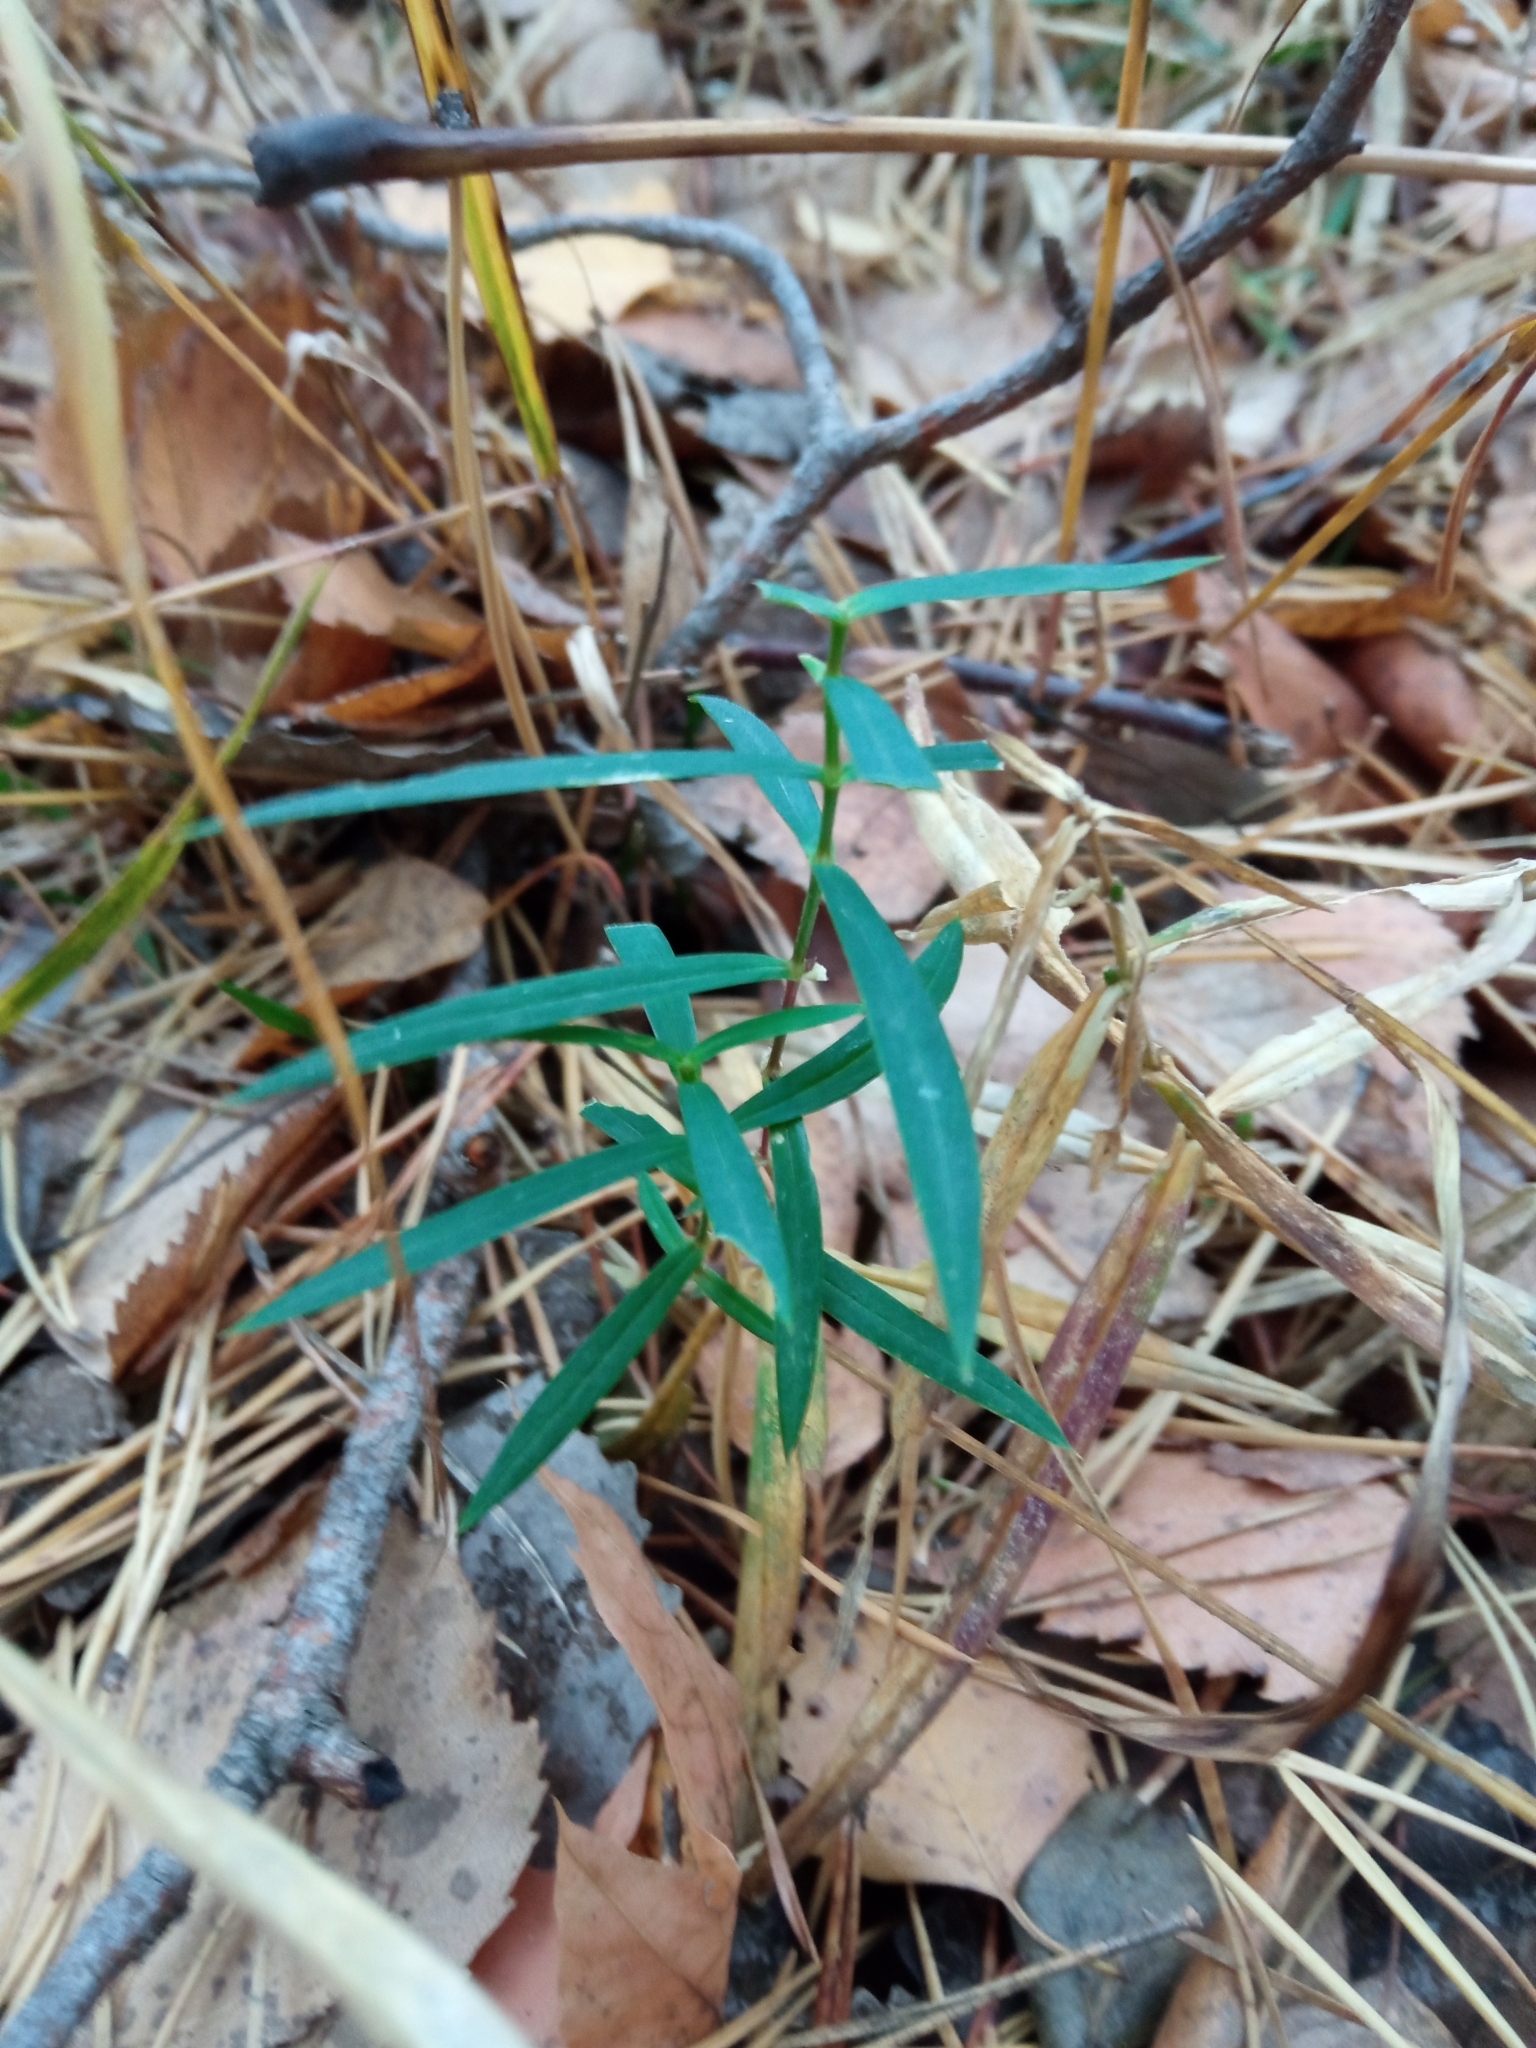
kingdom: Plantae
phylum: Tracheophyta
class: Magnoliopsida
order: Caryophyllales
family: Caryophyllaceae
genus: Rabelera
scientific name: Rabelera holostea
